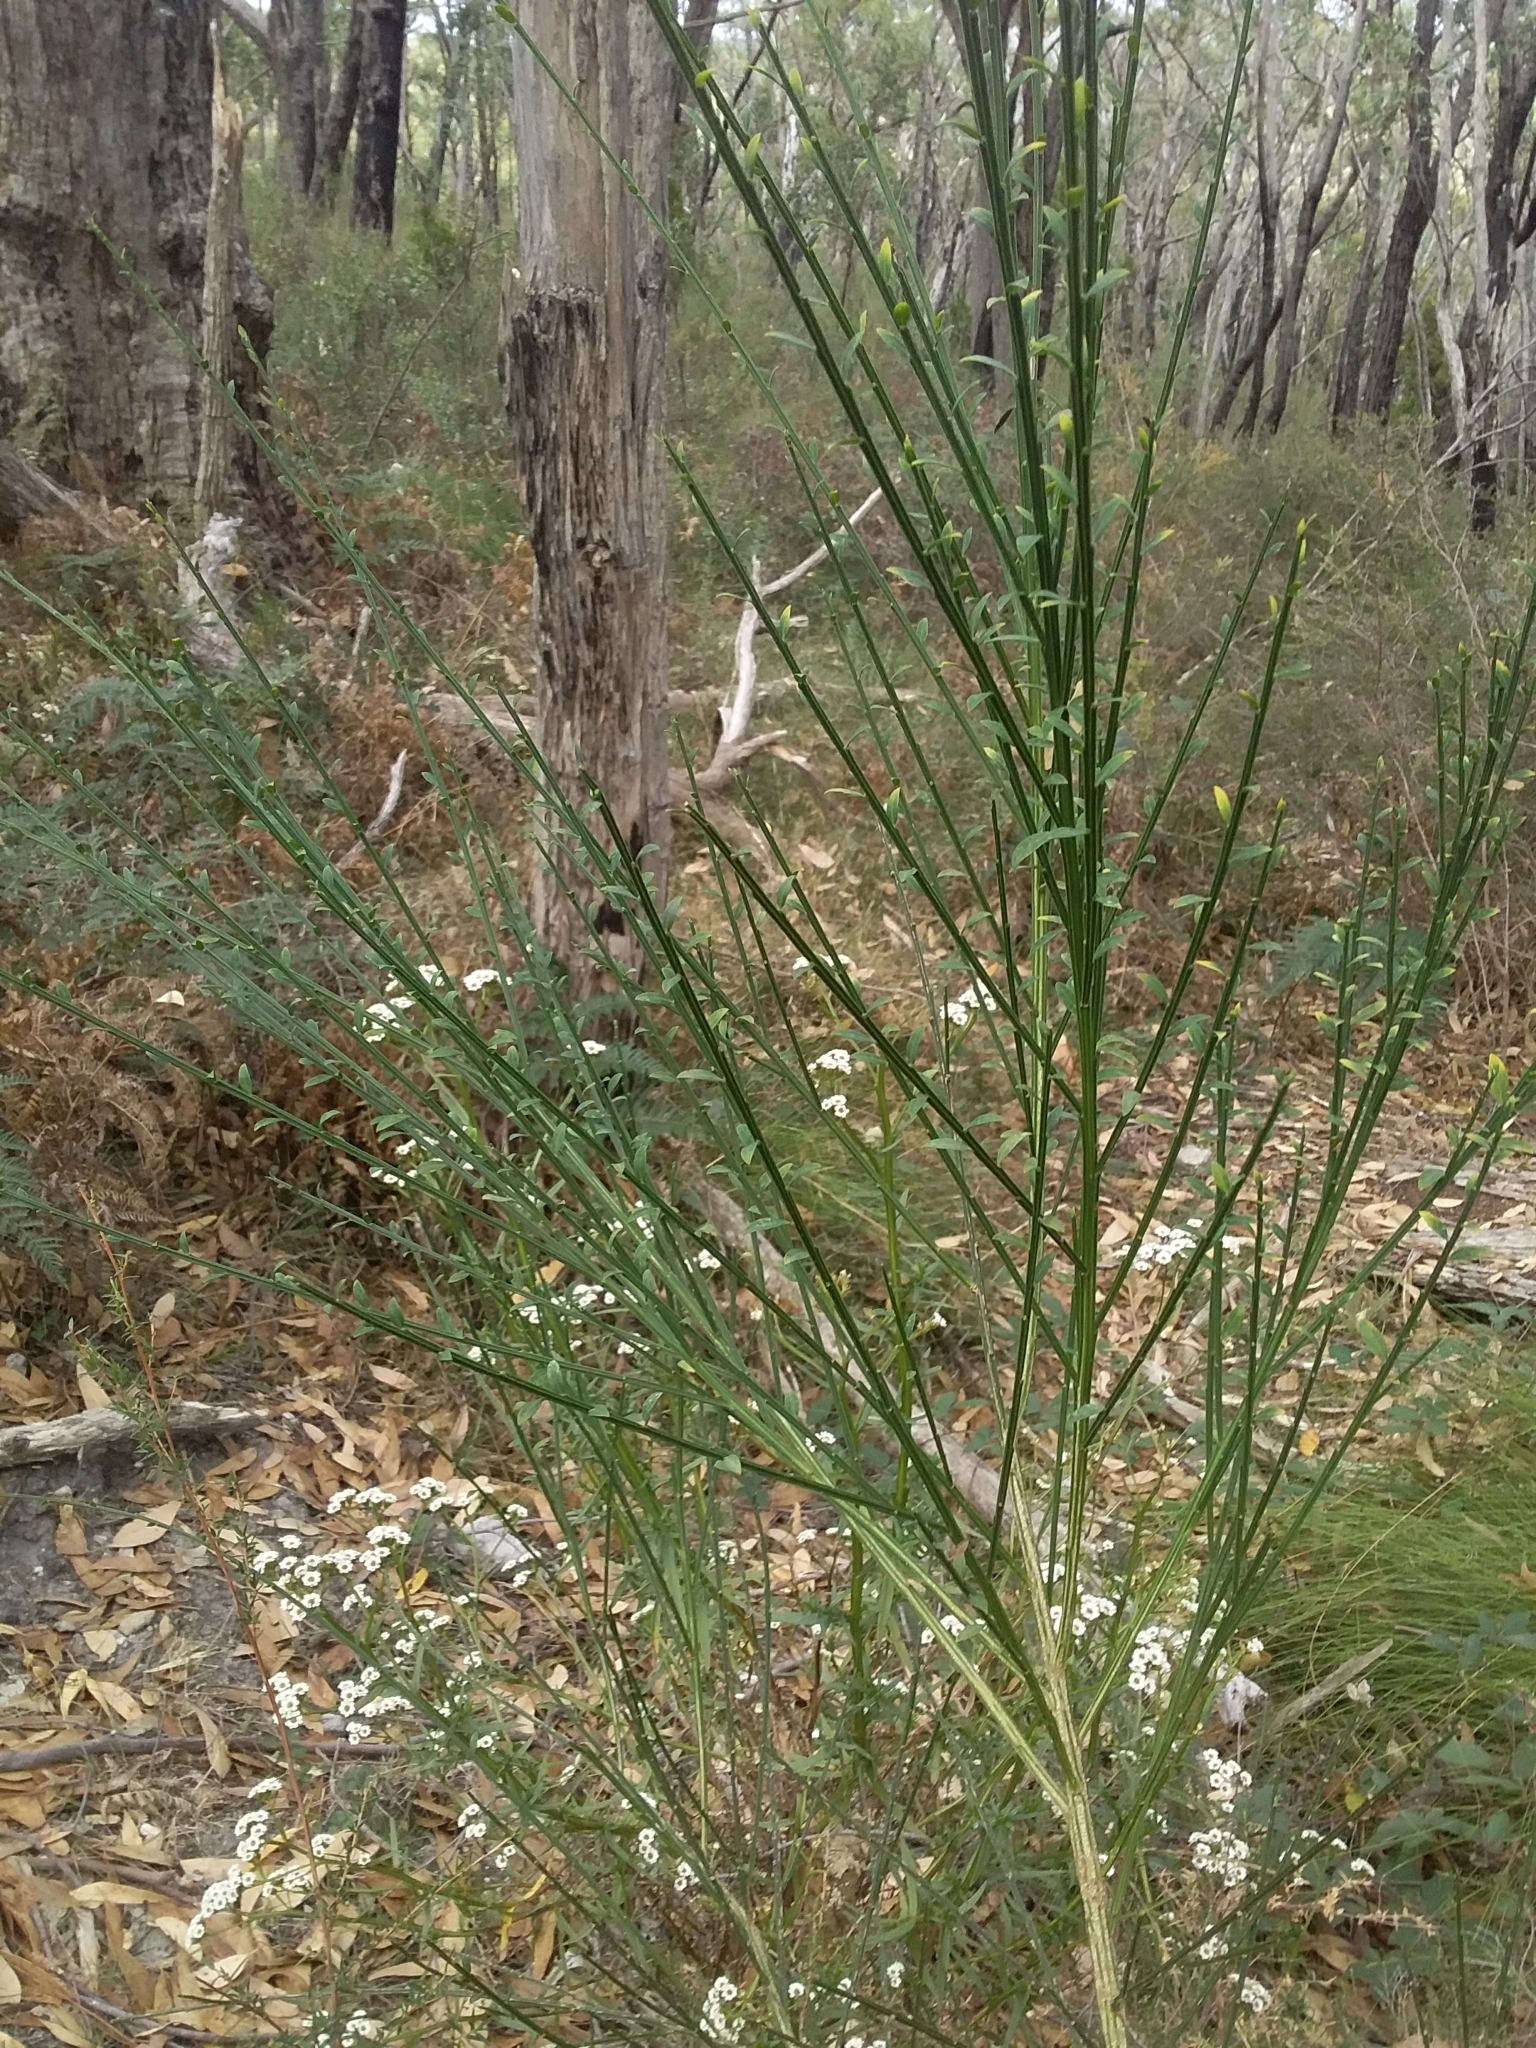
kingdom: Plantae
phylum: Tracheophyta
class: Magnoliopsida
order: Fabales
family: Fabaceae
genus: Cytisus
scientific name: Cytisus scoparius
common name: Scotch broom
